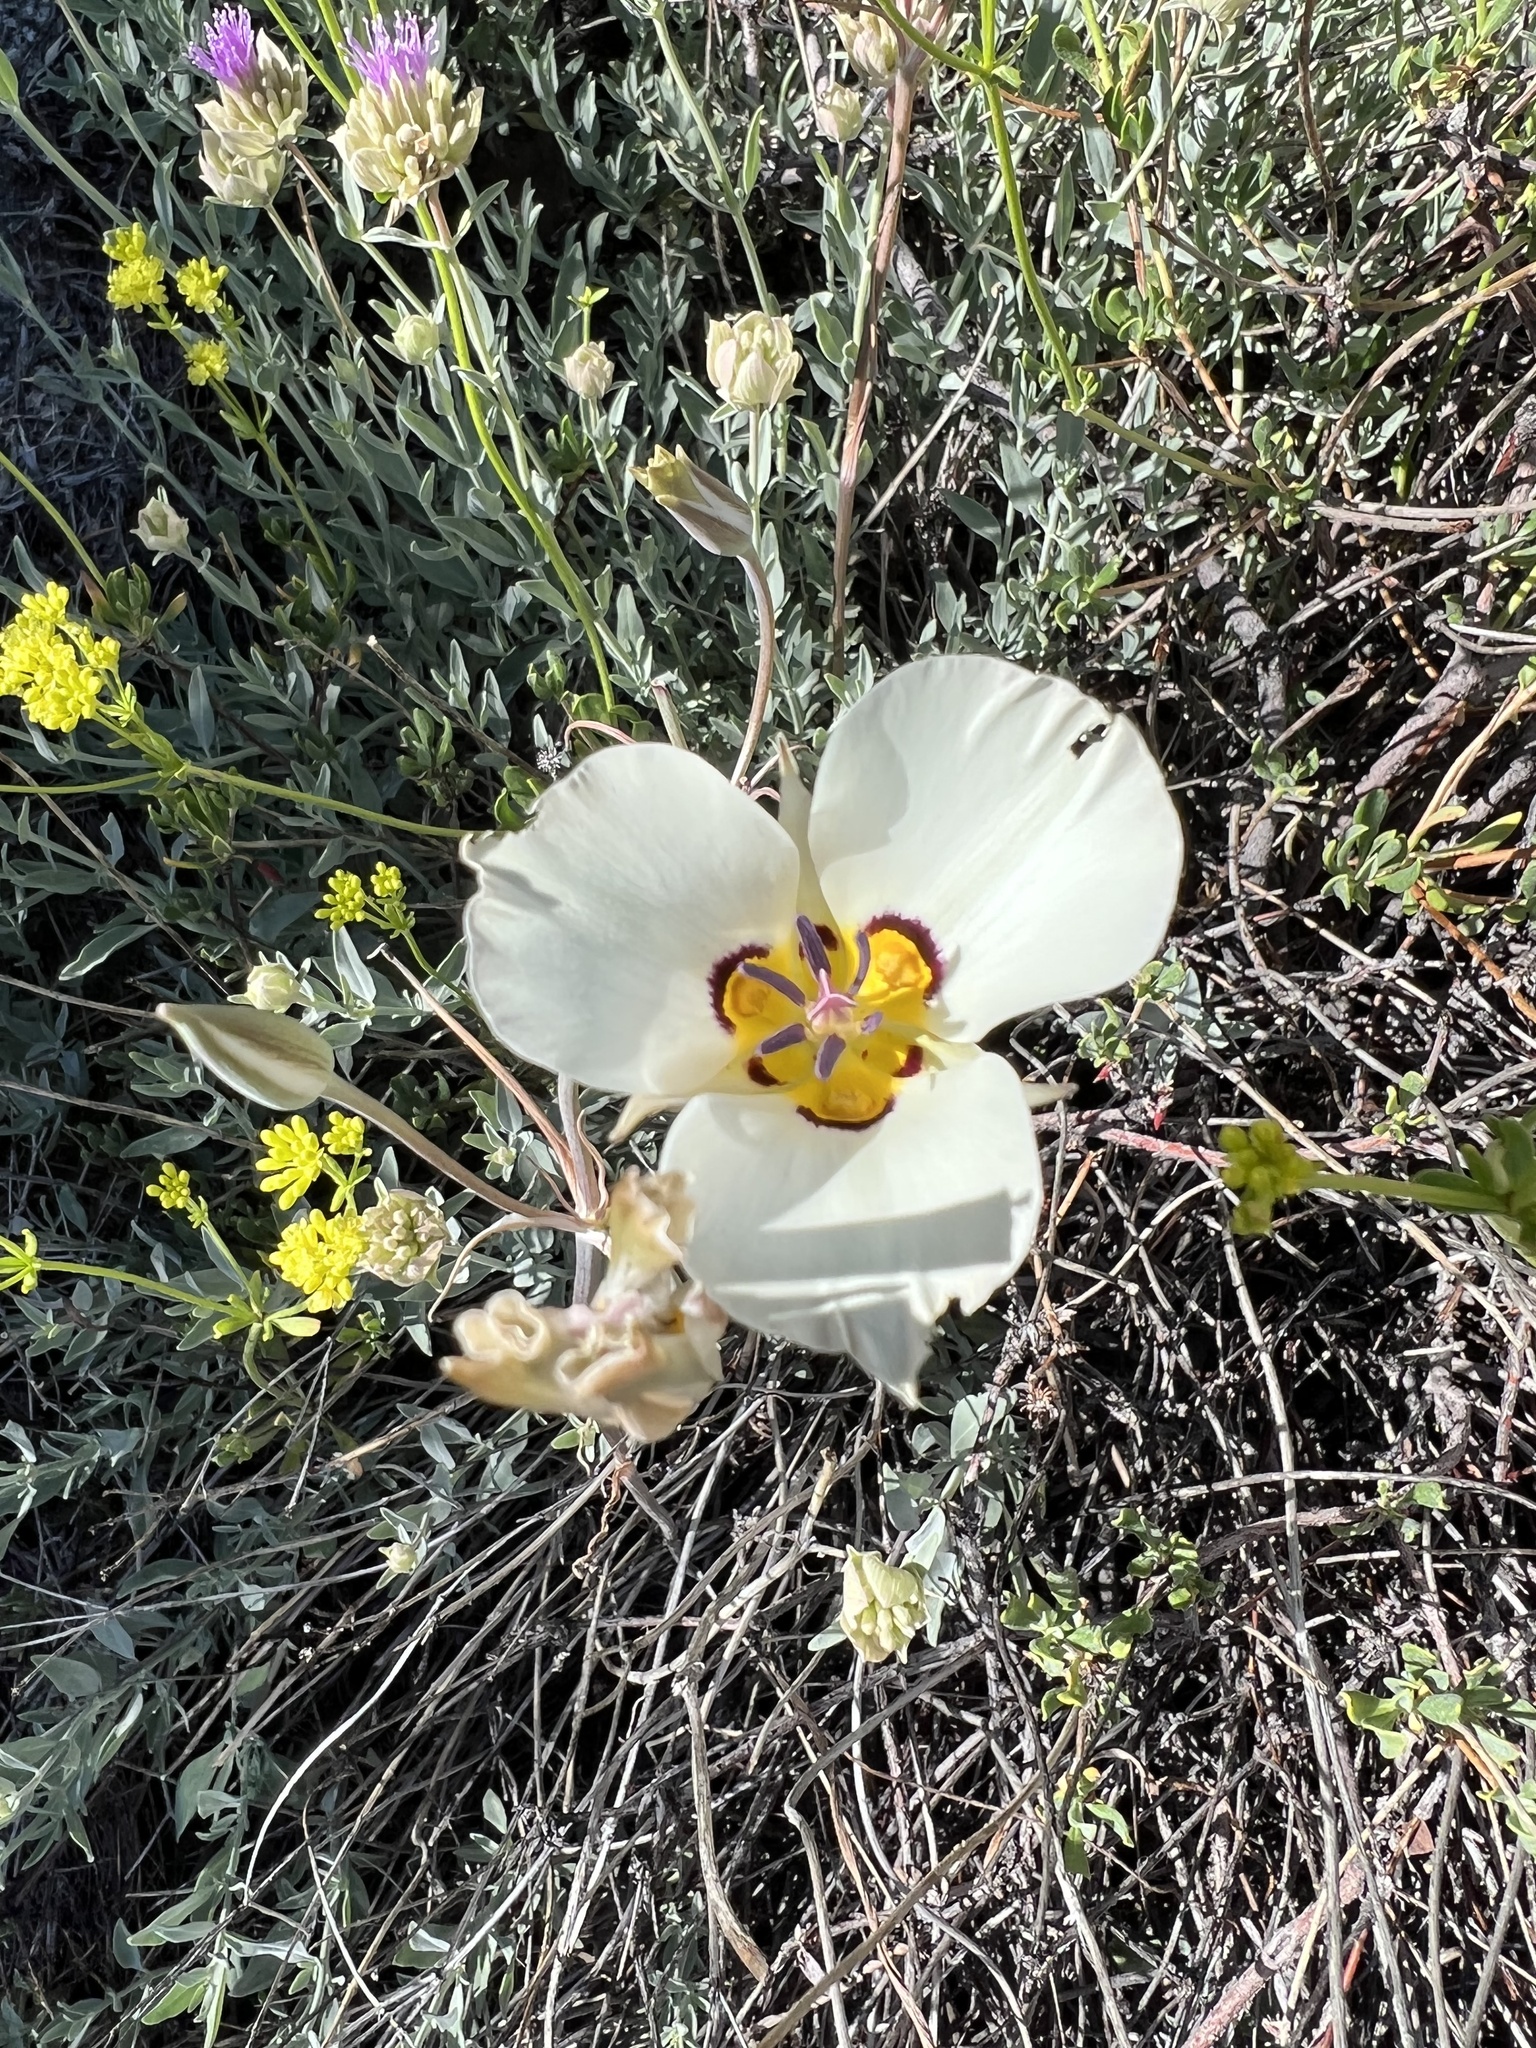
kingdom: Plantae
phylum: Tracheophyta
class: Liliopsida
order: Liliales
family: Liliaceae
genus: Calochortus
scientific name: Calochortus bruneaunis
